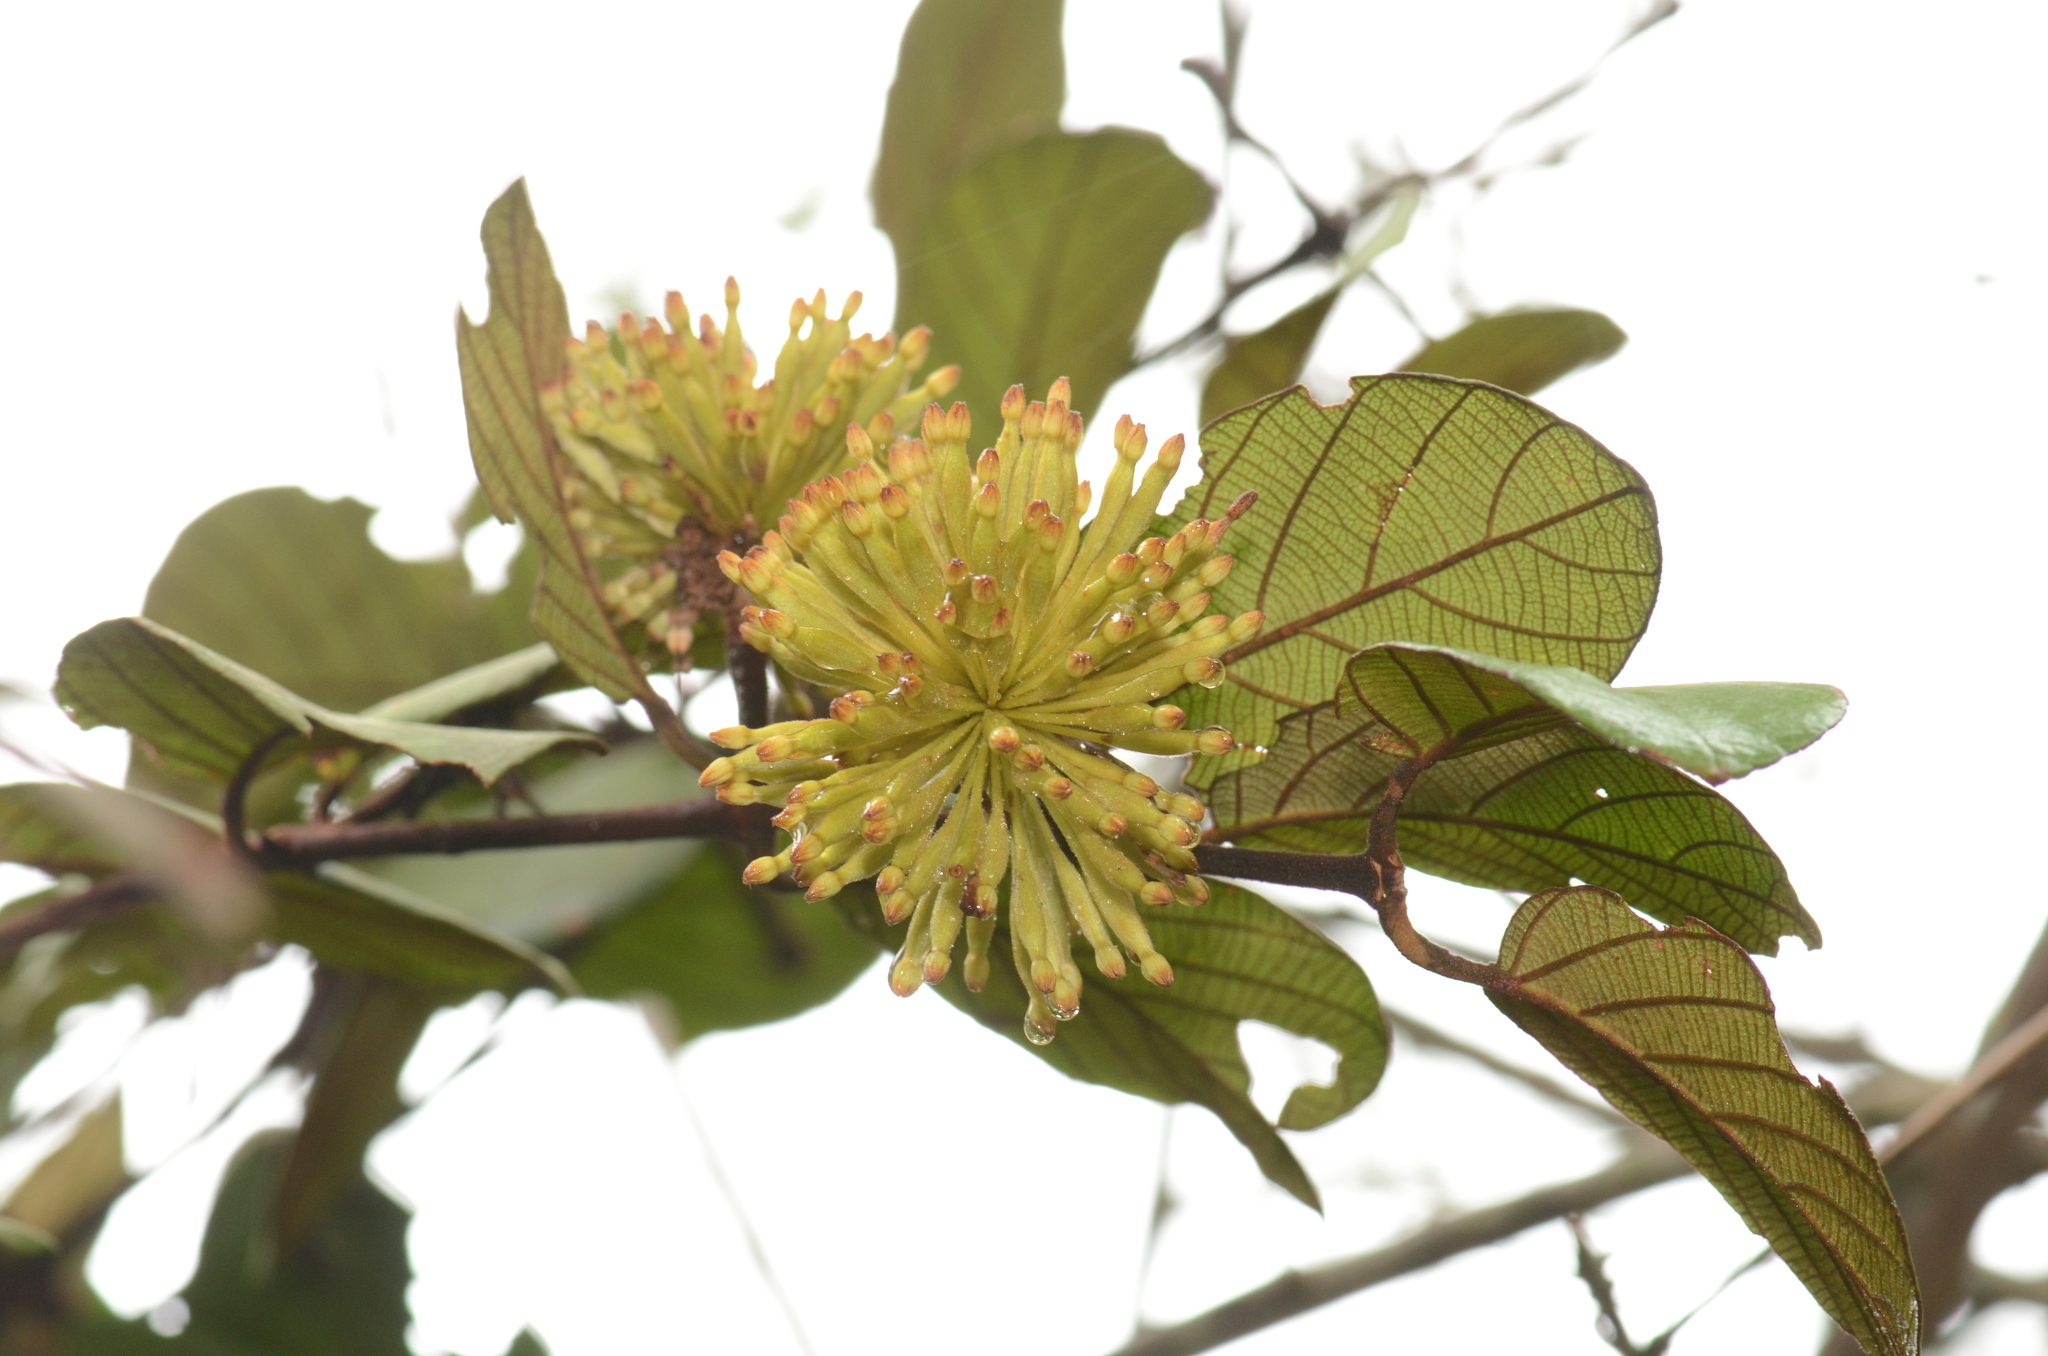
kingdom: Plantae
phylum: Tracheophyta
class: Magnoliopsida
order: Gentianales
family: Rubiaceae
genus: Uncaria
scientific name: Uncaria cordata
